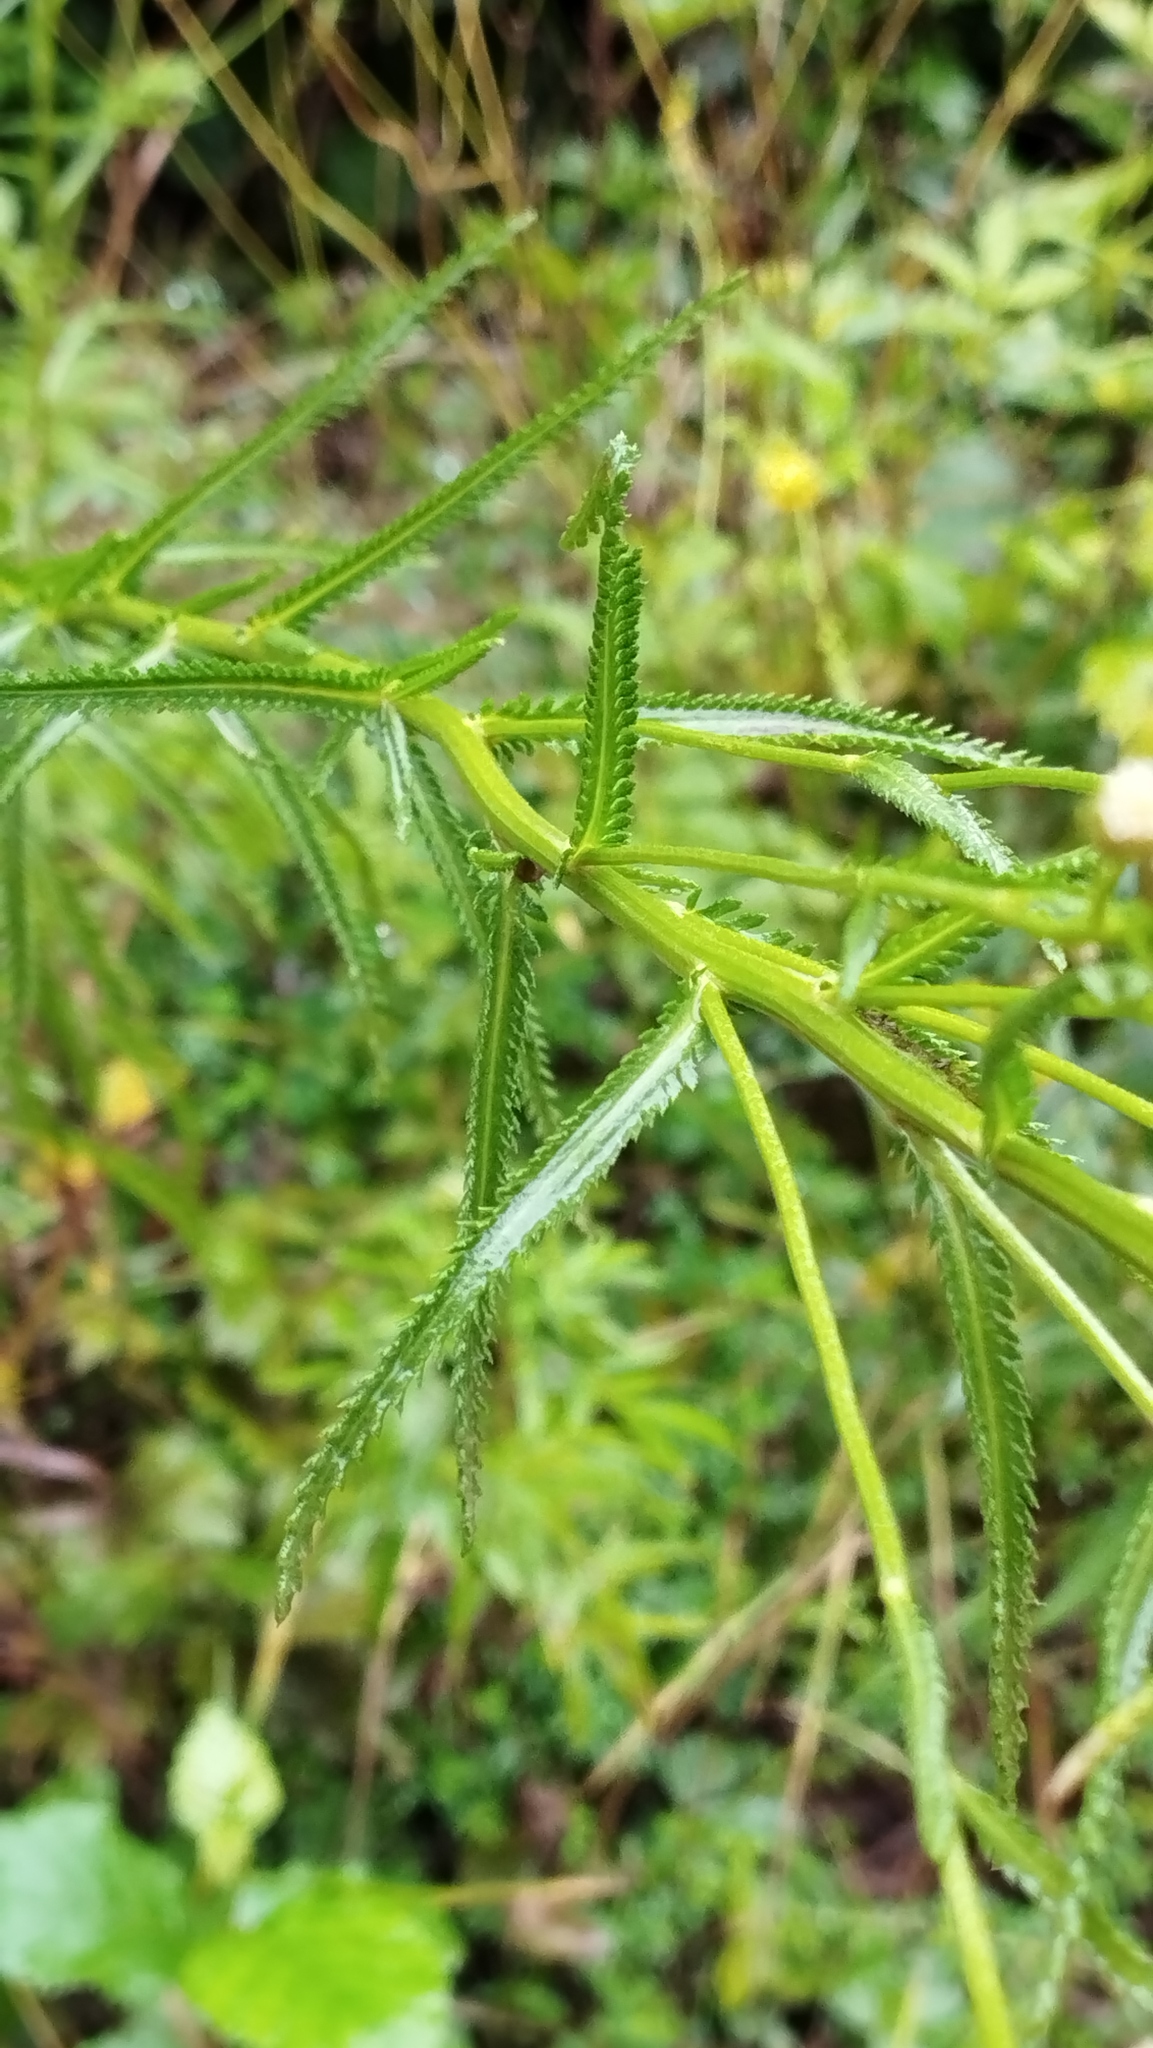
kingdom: Plantae
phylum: Tracheophyta
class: Magnoliopsida
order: Asterales
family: Asteraceae
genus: Achillea
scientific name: Achillea ptarmicoides
